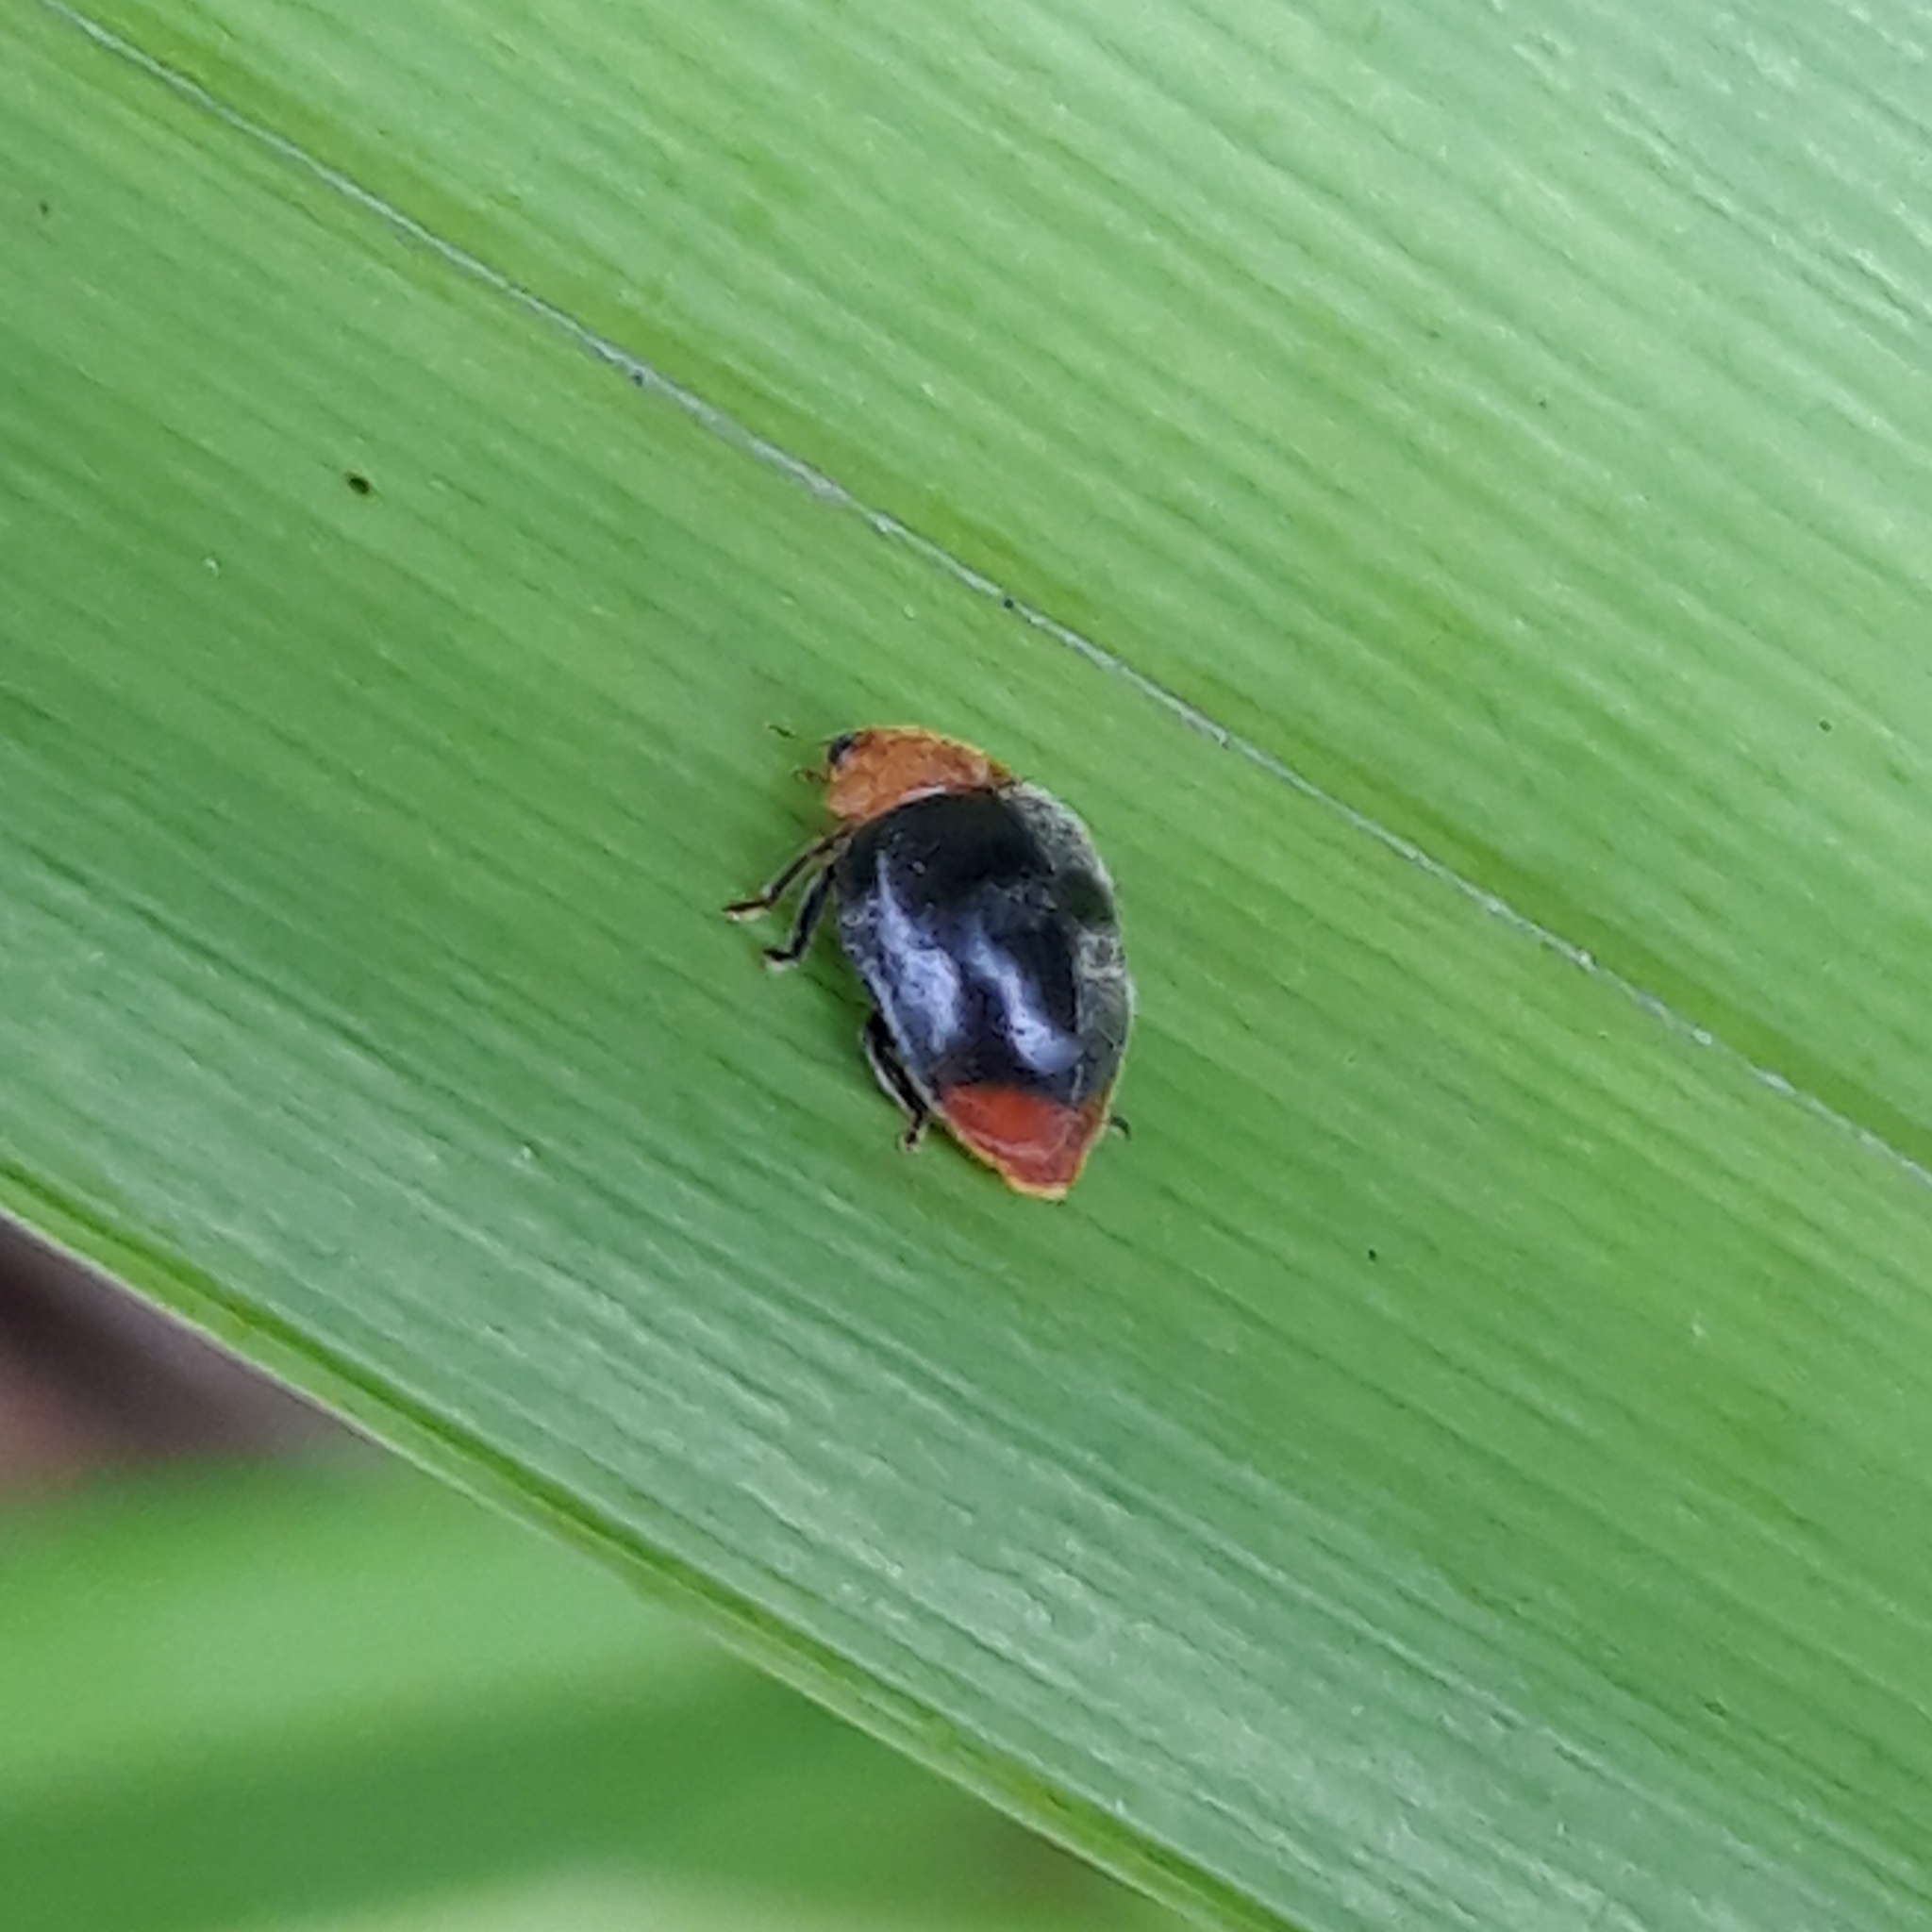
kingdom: Animalia
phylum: Arthropoda
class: Insecta
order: Coleoptera
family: Coccinellidae
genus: Cryptolaemus
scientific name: Cryptolaemus montrouzieri
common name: Mealybug destroyer
